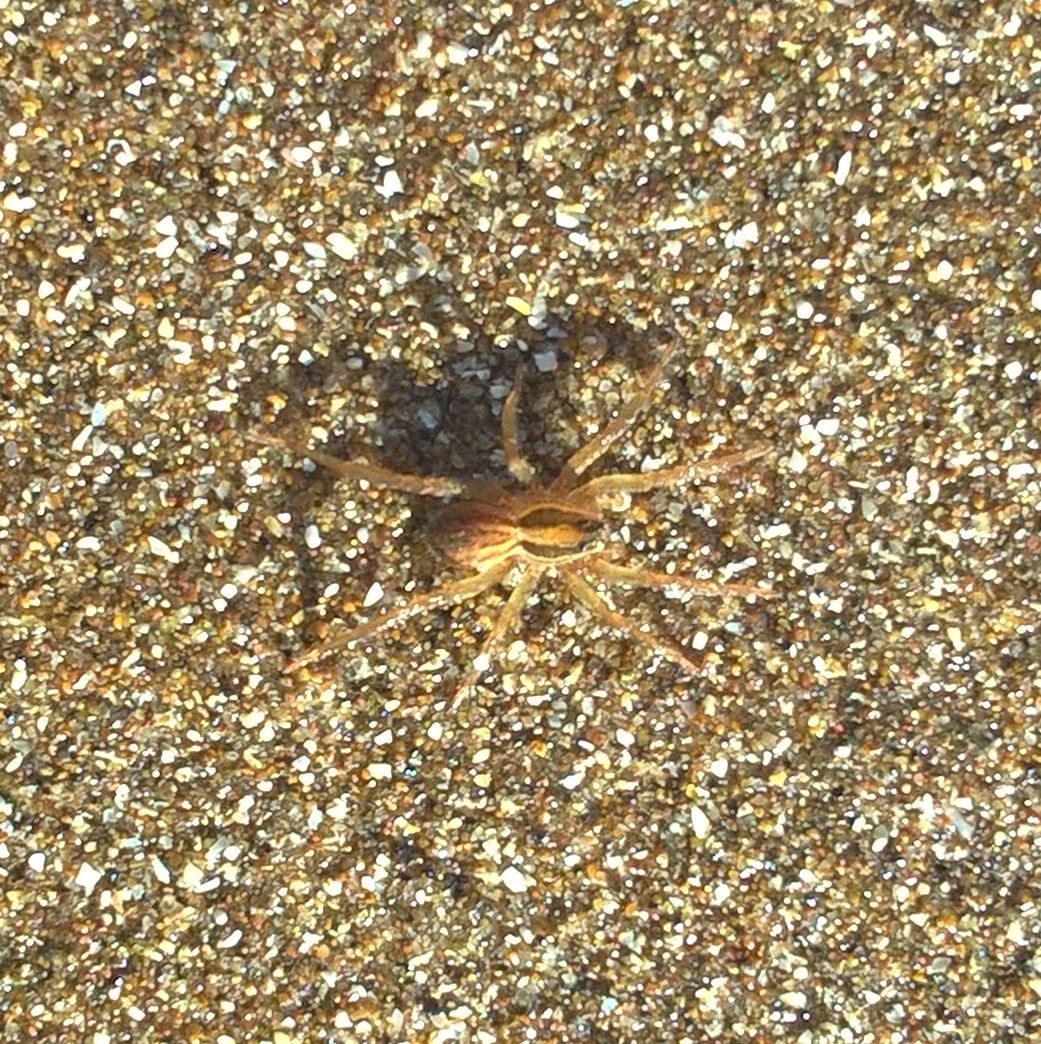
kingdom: Animalia
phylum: Arthropoda
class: Arachnida
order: Araneae
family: Lycosidae
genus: Alopecosa
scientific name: Alopecosa moesta
